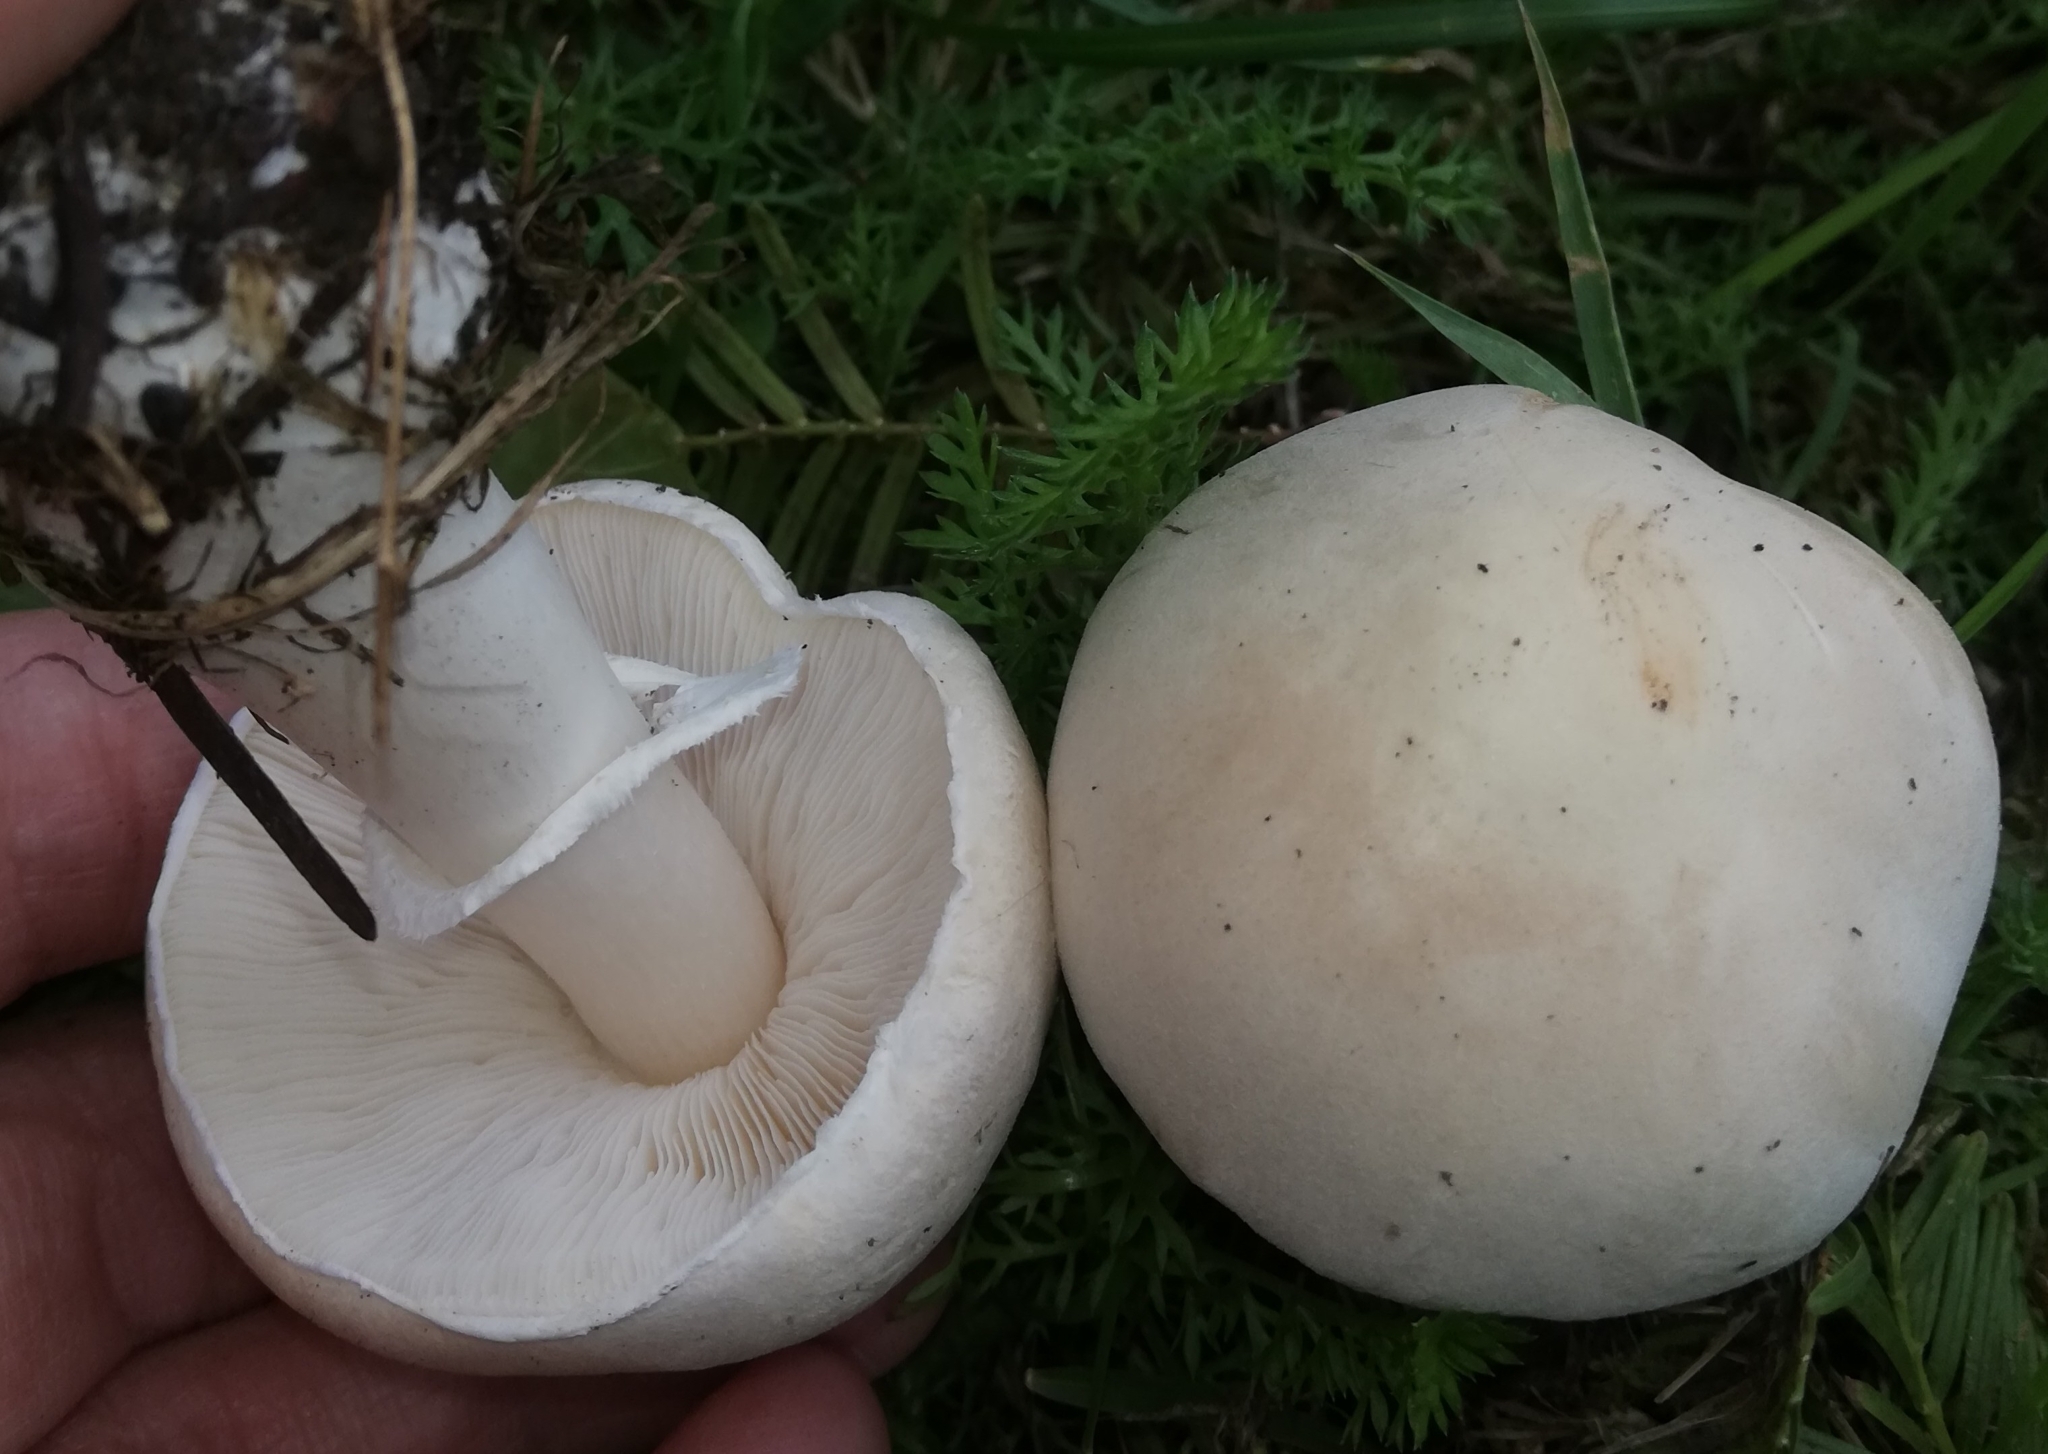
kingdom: Fungi
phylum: Basidiomycota
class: Agaricomycetes
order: Agaricales
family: Agaricaceae
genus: Leucoagaricus
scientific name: Leucoagaricus leucothites
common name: White dapperling
